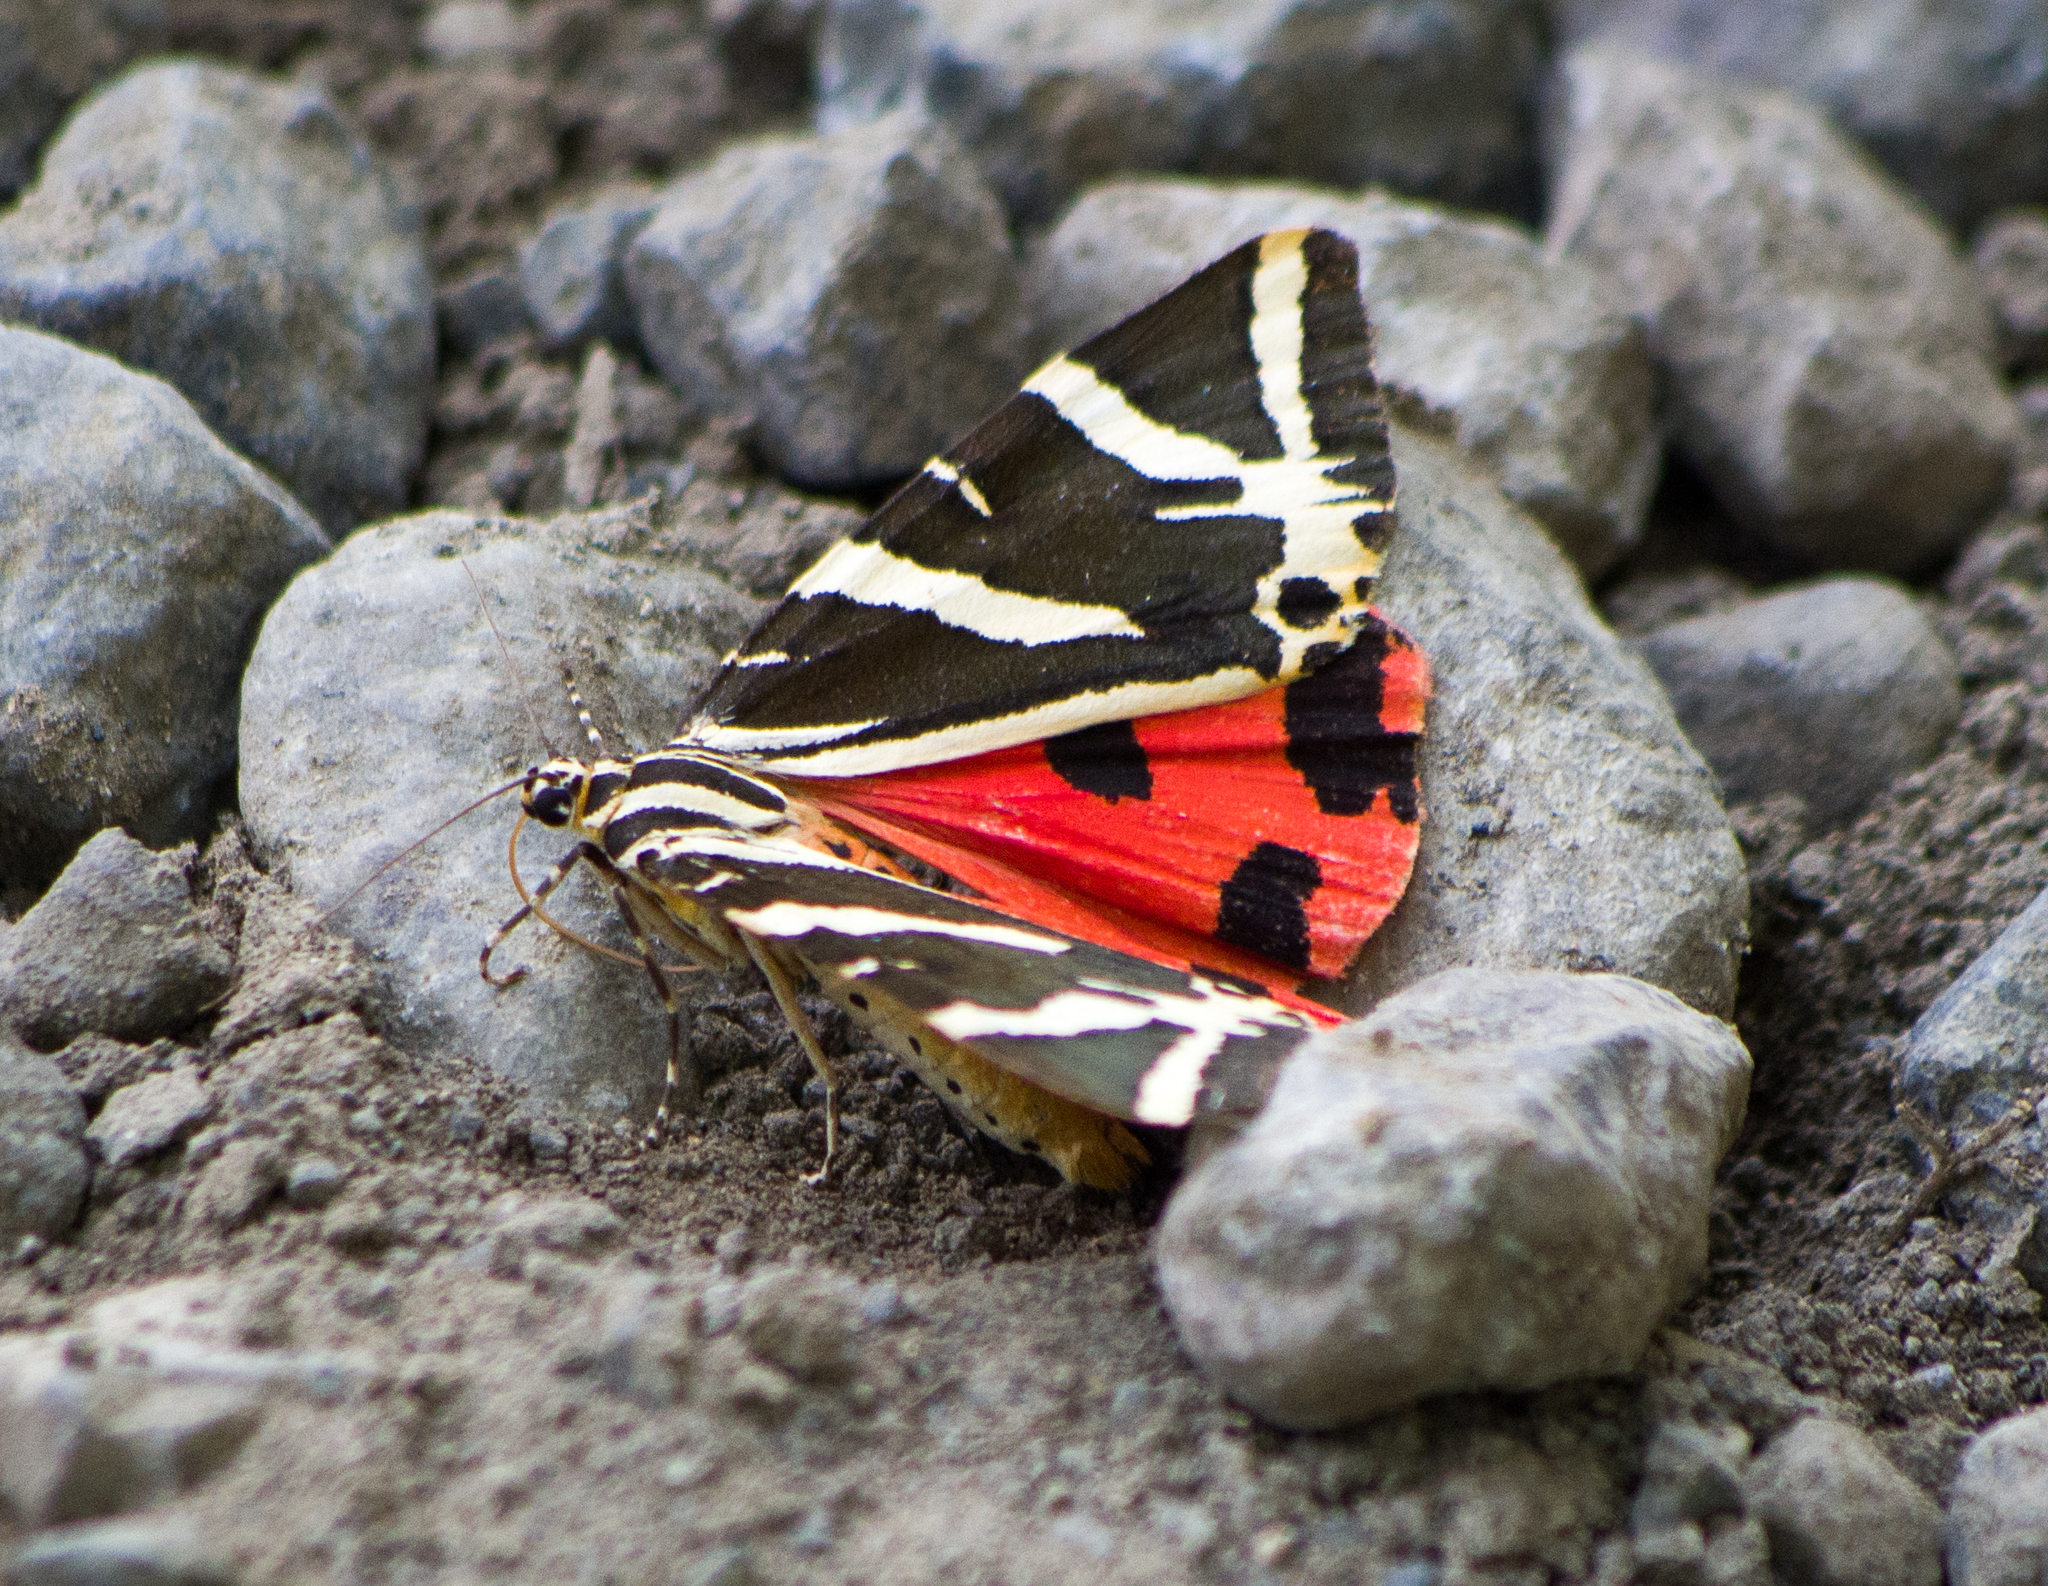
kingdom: Animalia
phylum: Arthropoda
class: Insecta
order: Lepidoptera
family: Erebidae
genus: Euplagia
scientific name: Euplagia quadripunctaria
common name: Jersey tiger
